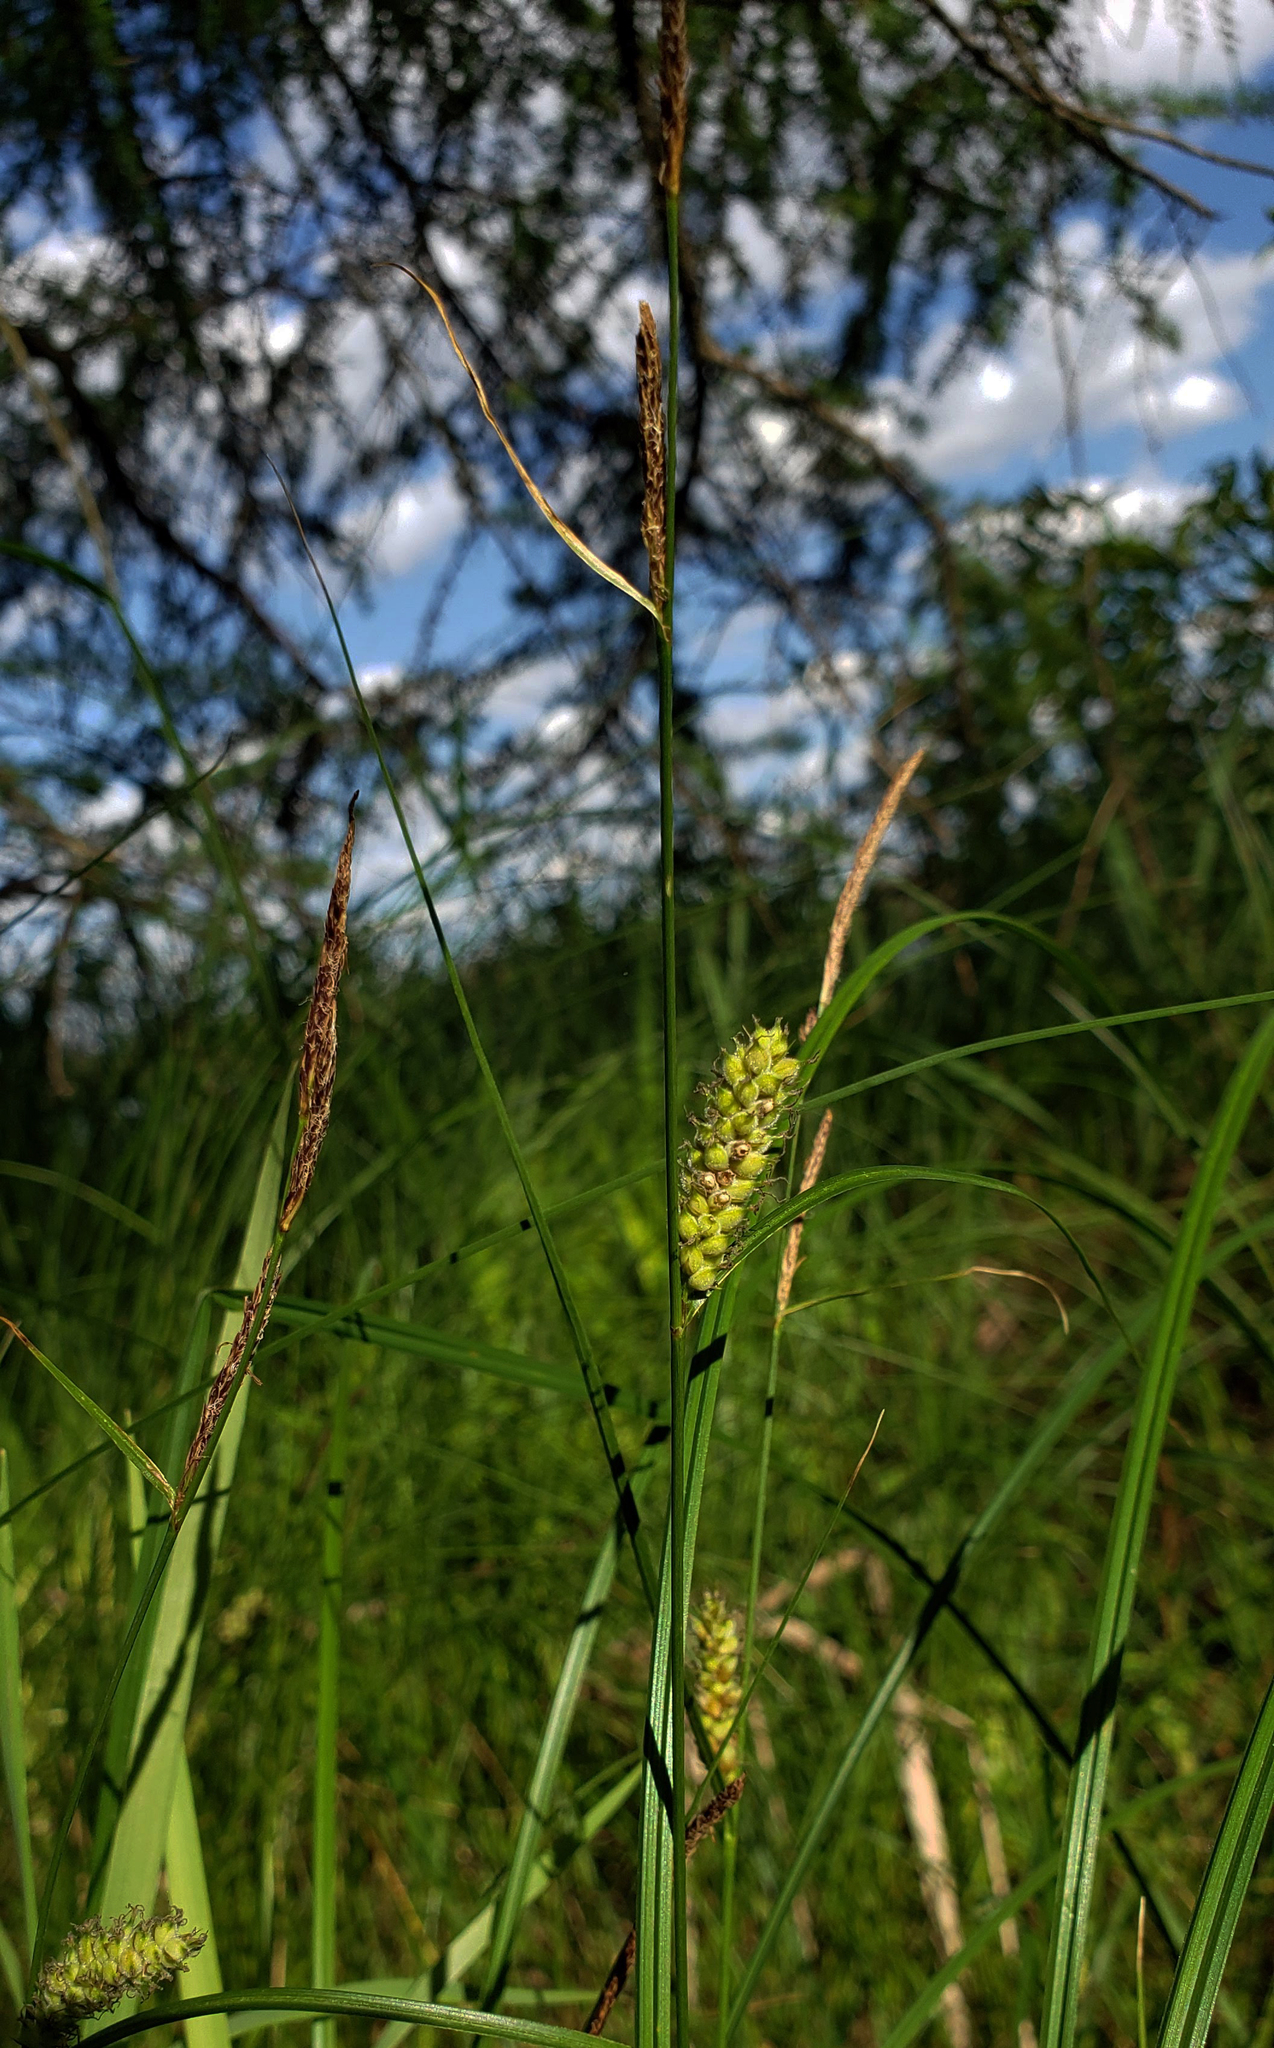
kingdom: Plantae
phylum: Tracheophyta
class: Liliopsida
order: Poales
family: Cyperaceae
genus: Carex
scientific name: Carex pellita
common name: Woolly sedge
